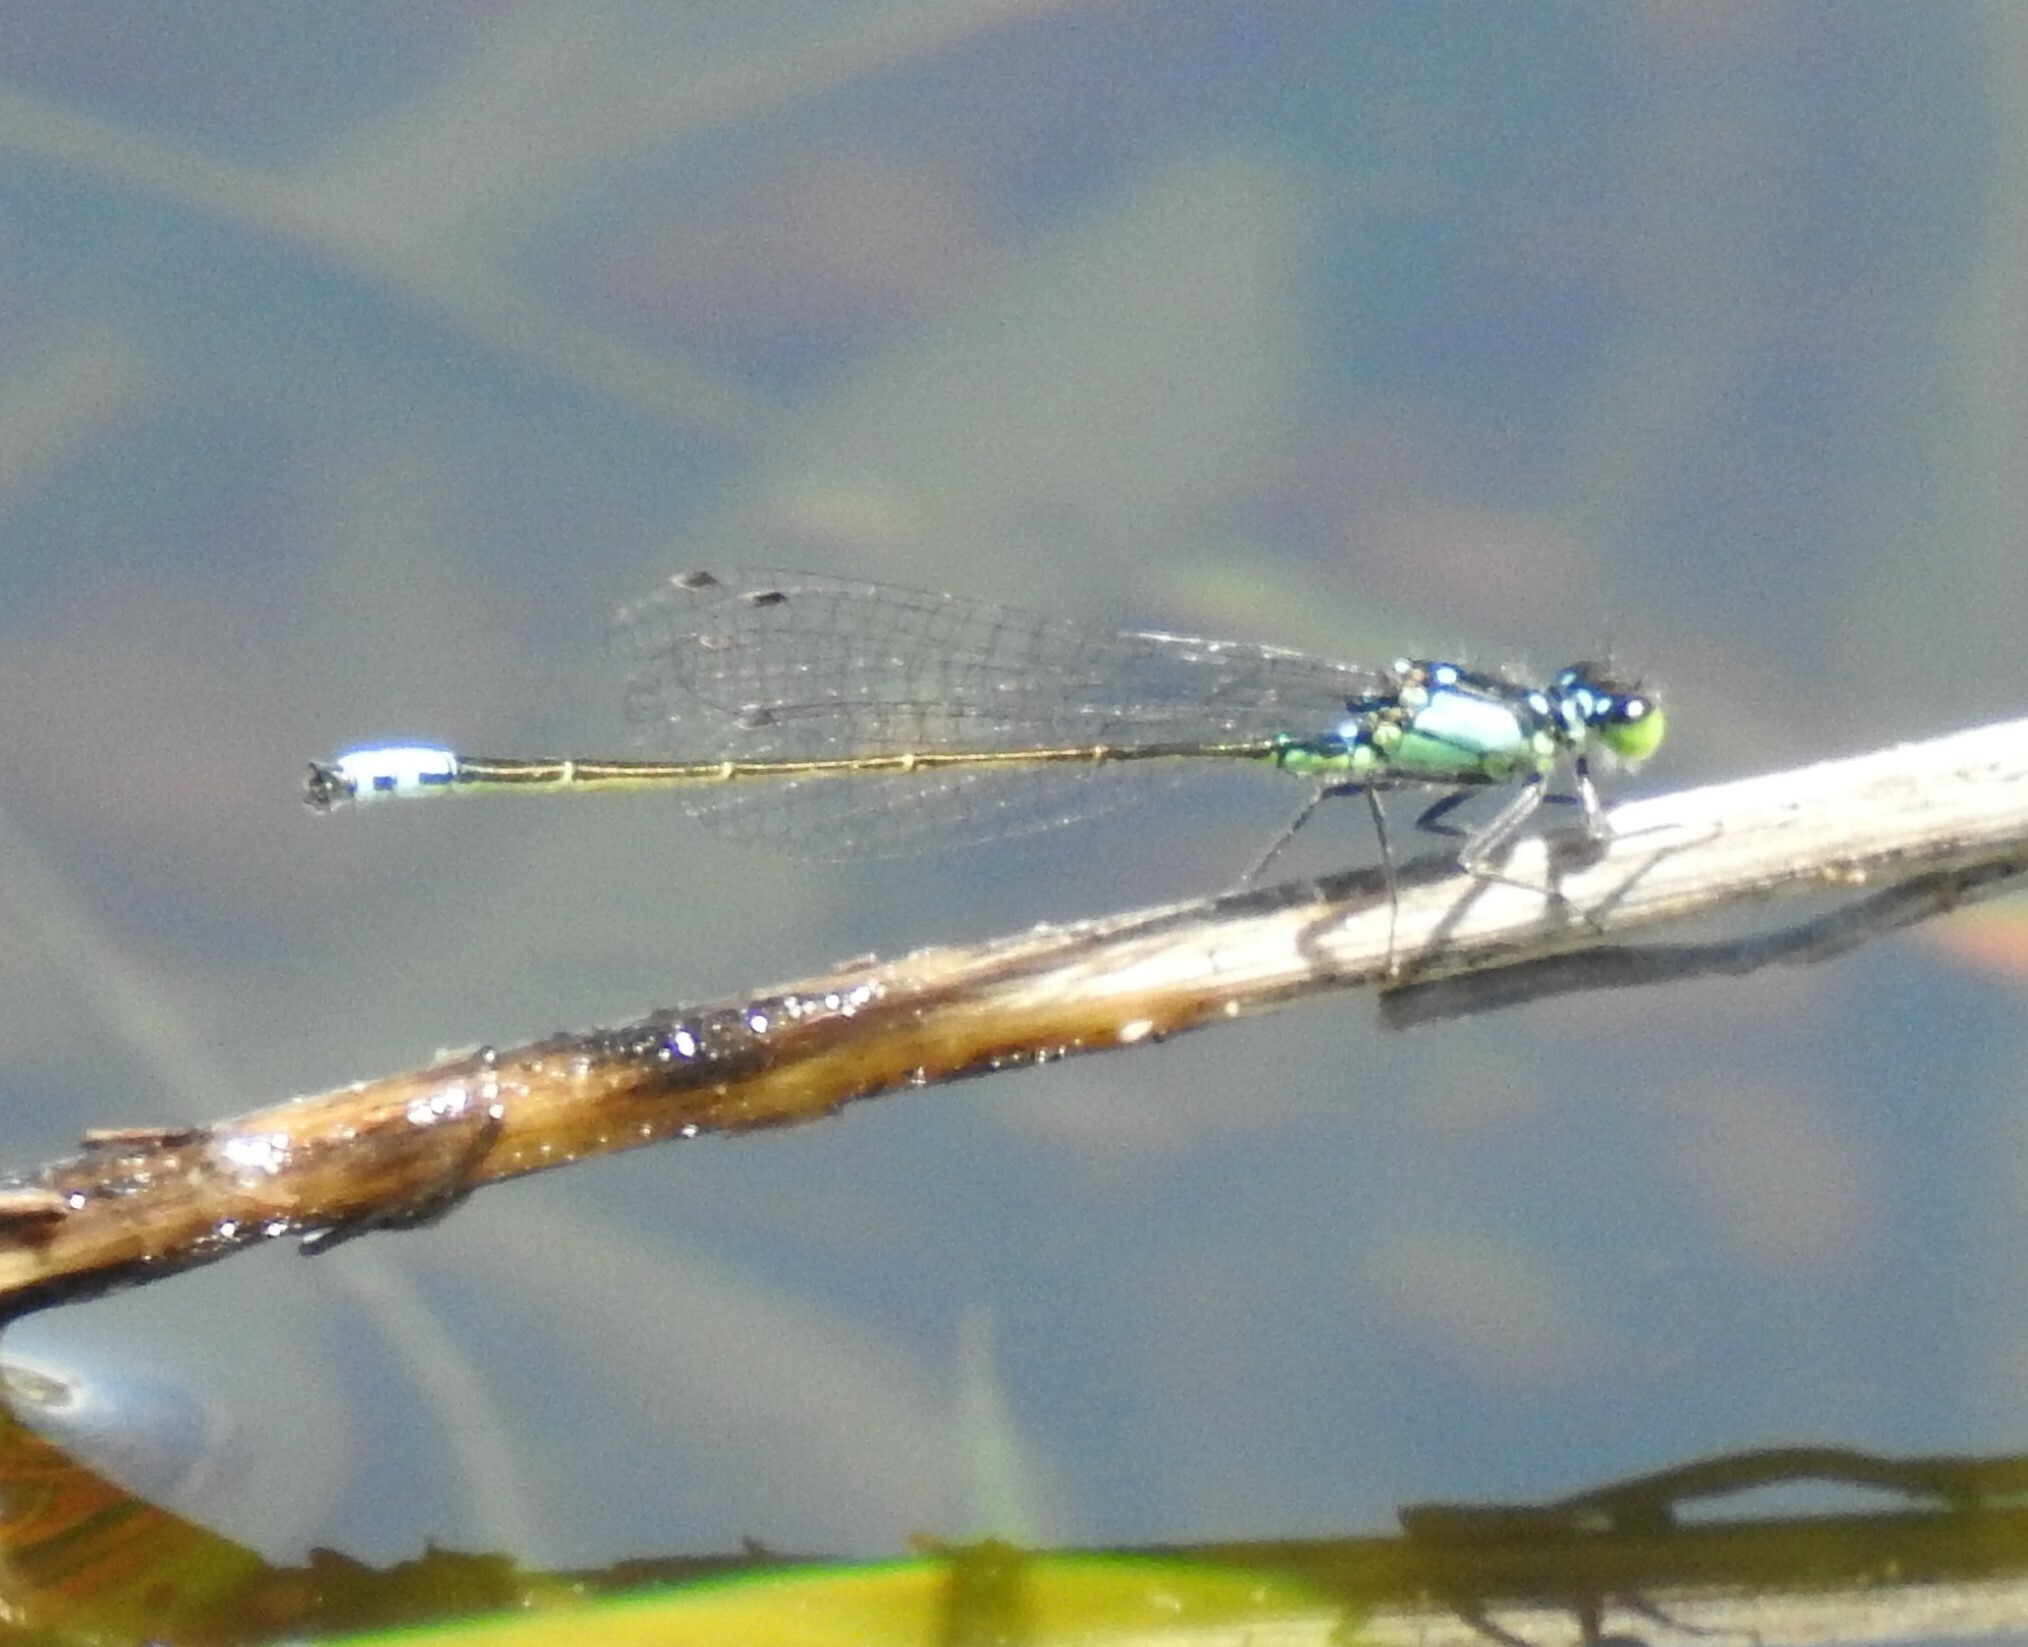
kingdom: Animalia
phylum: Arthropoda
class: Insecta
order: Odonata
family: Coenagrionidae
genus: Ischnura
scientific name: Ischnura cervula
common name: Pacific forktail
